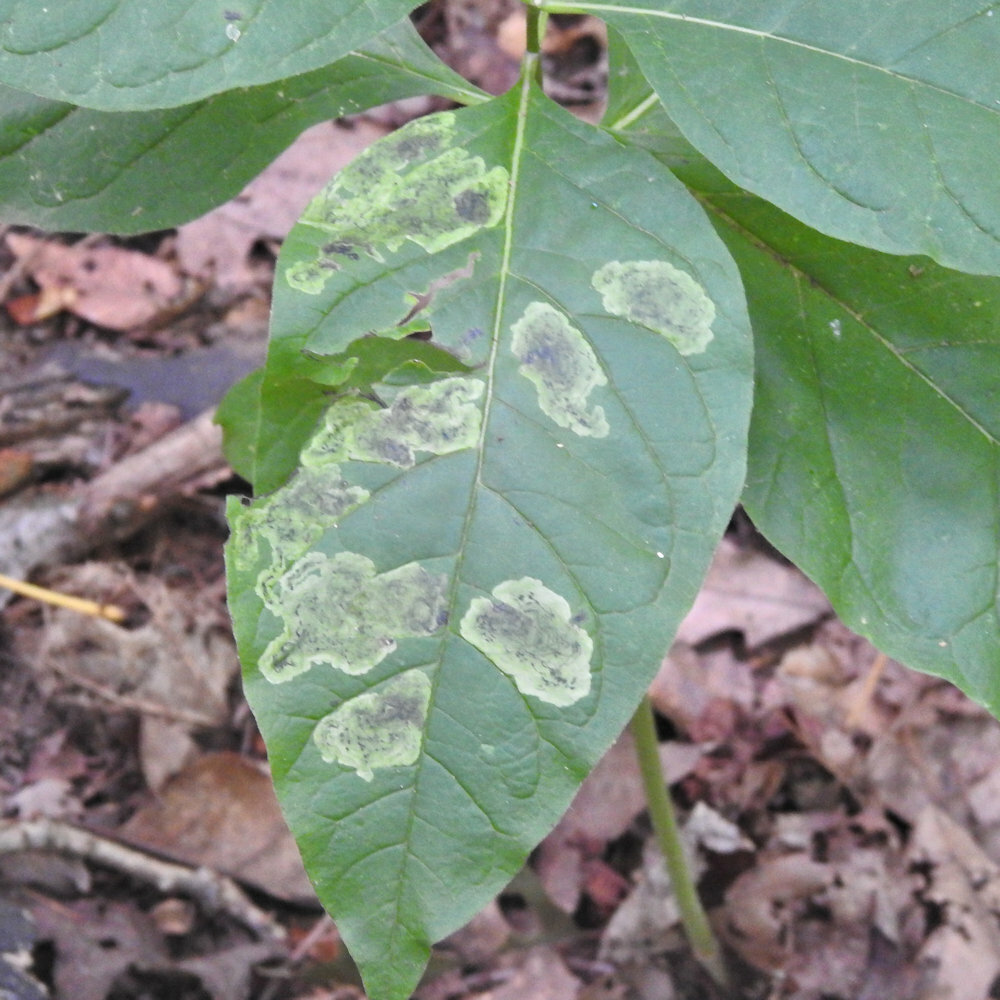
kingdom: Animalia
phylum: Arthropoda
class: Insecta
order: Diptera
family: Agromyzidae
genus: Liriomyza
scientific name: Liriomyza asclepiadis
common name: Milkweed leaf-miner fly
